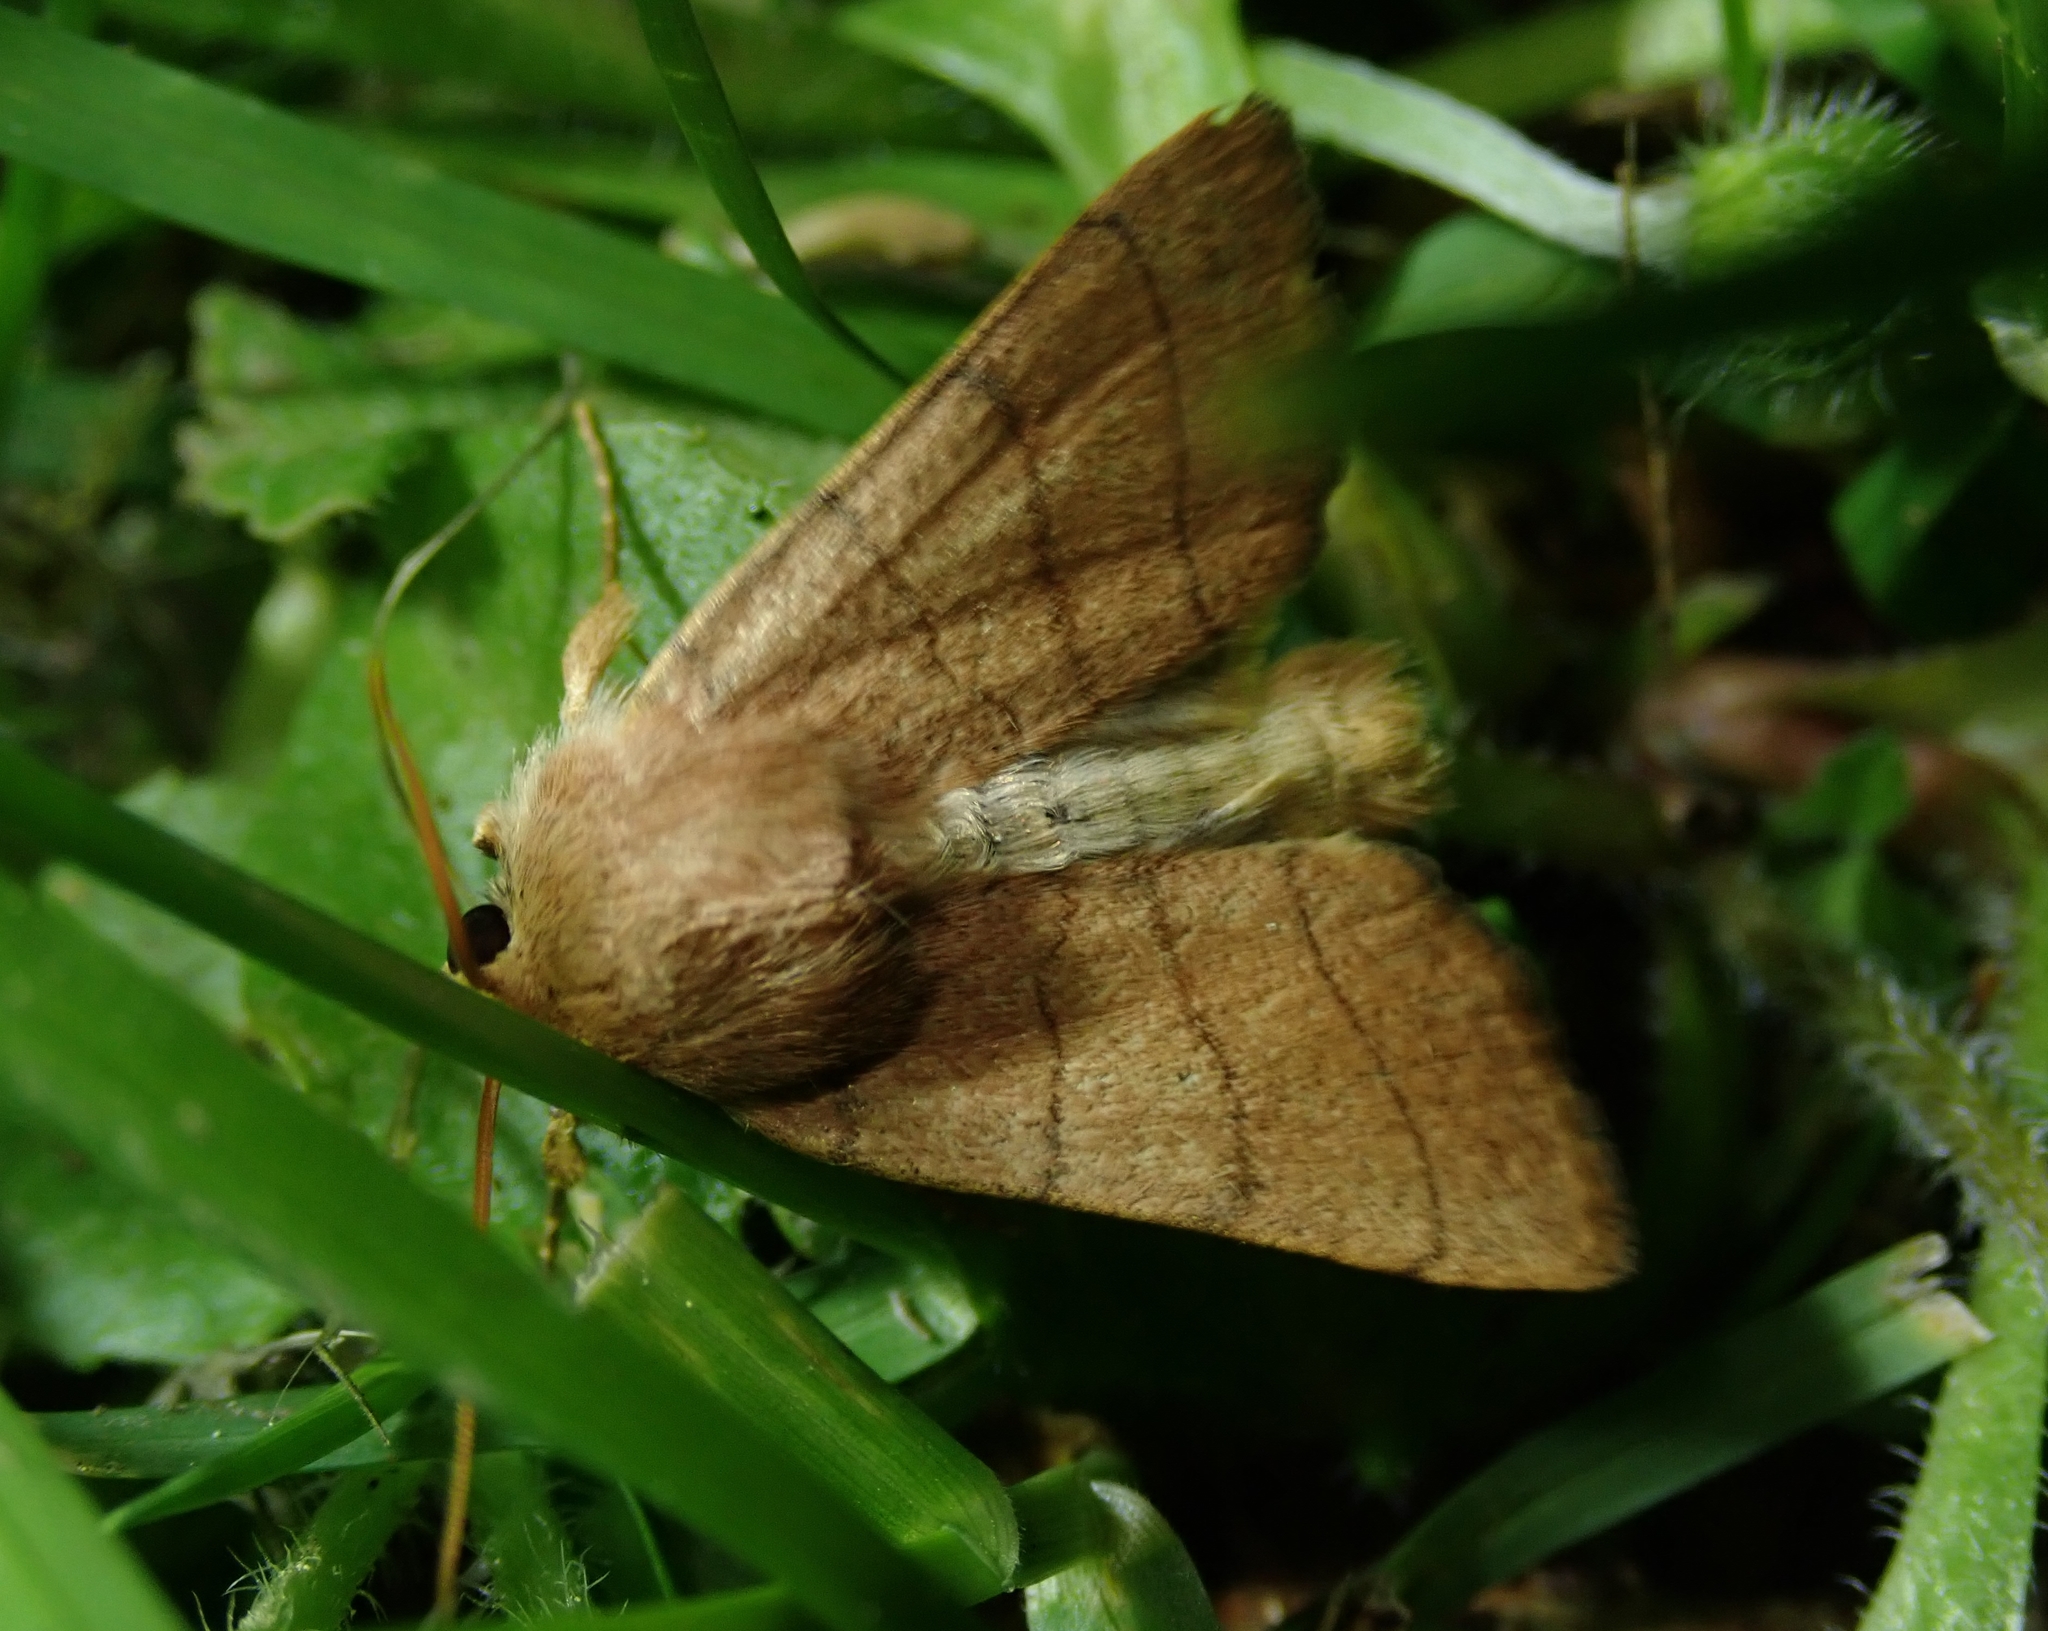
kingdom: Animalia
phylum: Arthropoda
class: Insecta
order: Lepidoptera
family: Noctuidae
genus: Charanyca
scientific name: Charanyca trigrammica
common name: Treble lines
